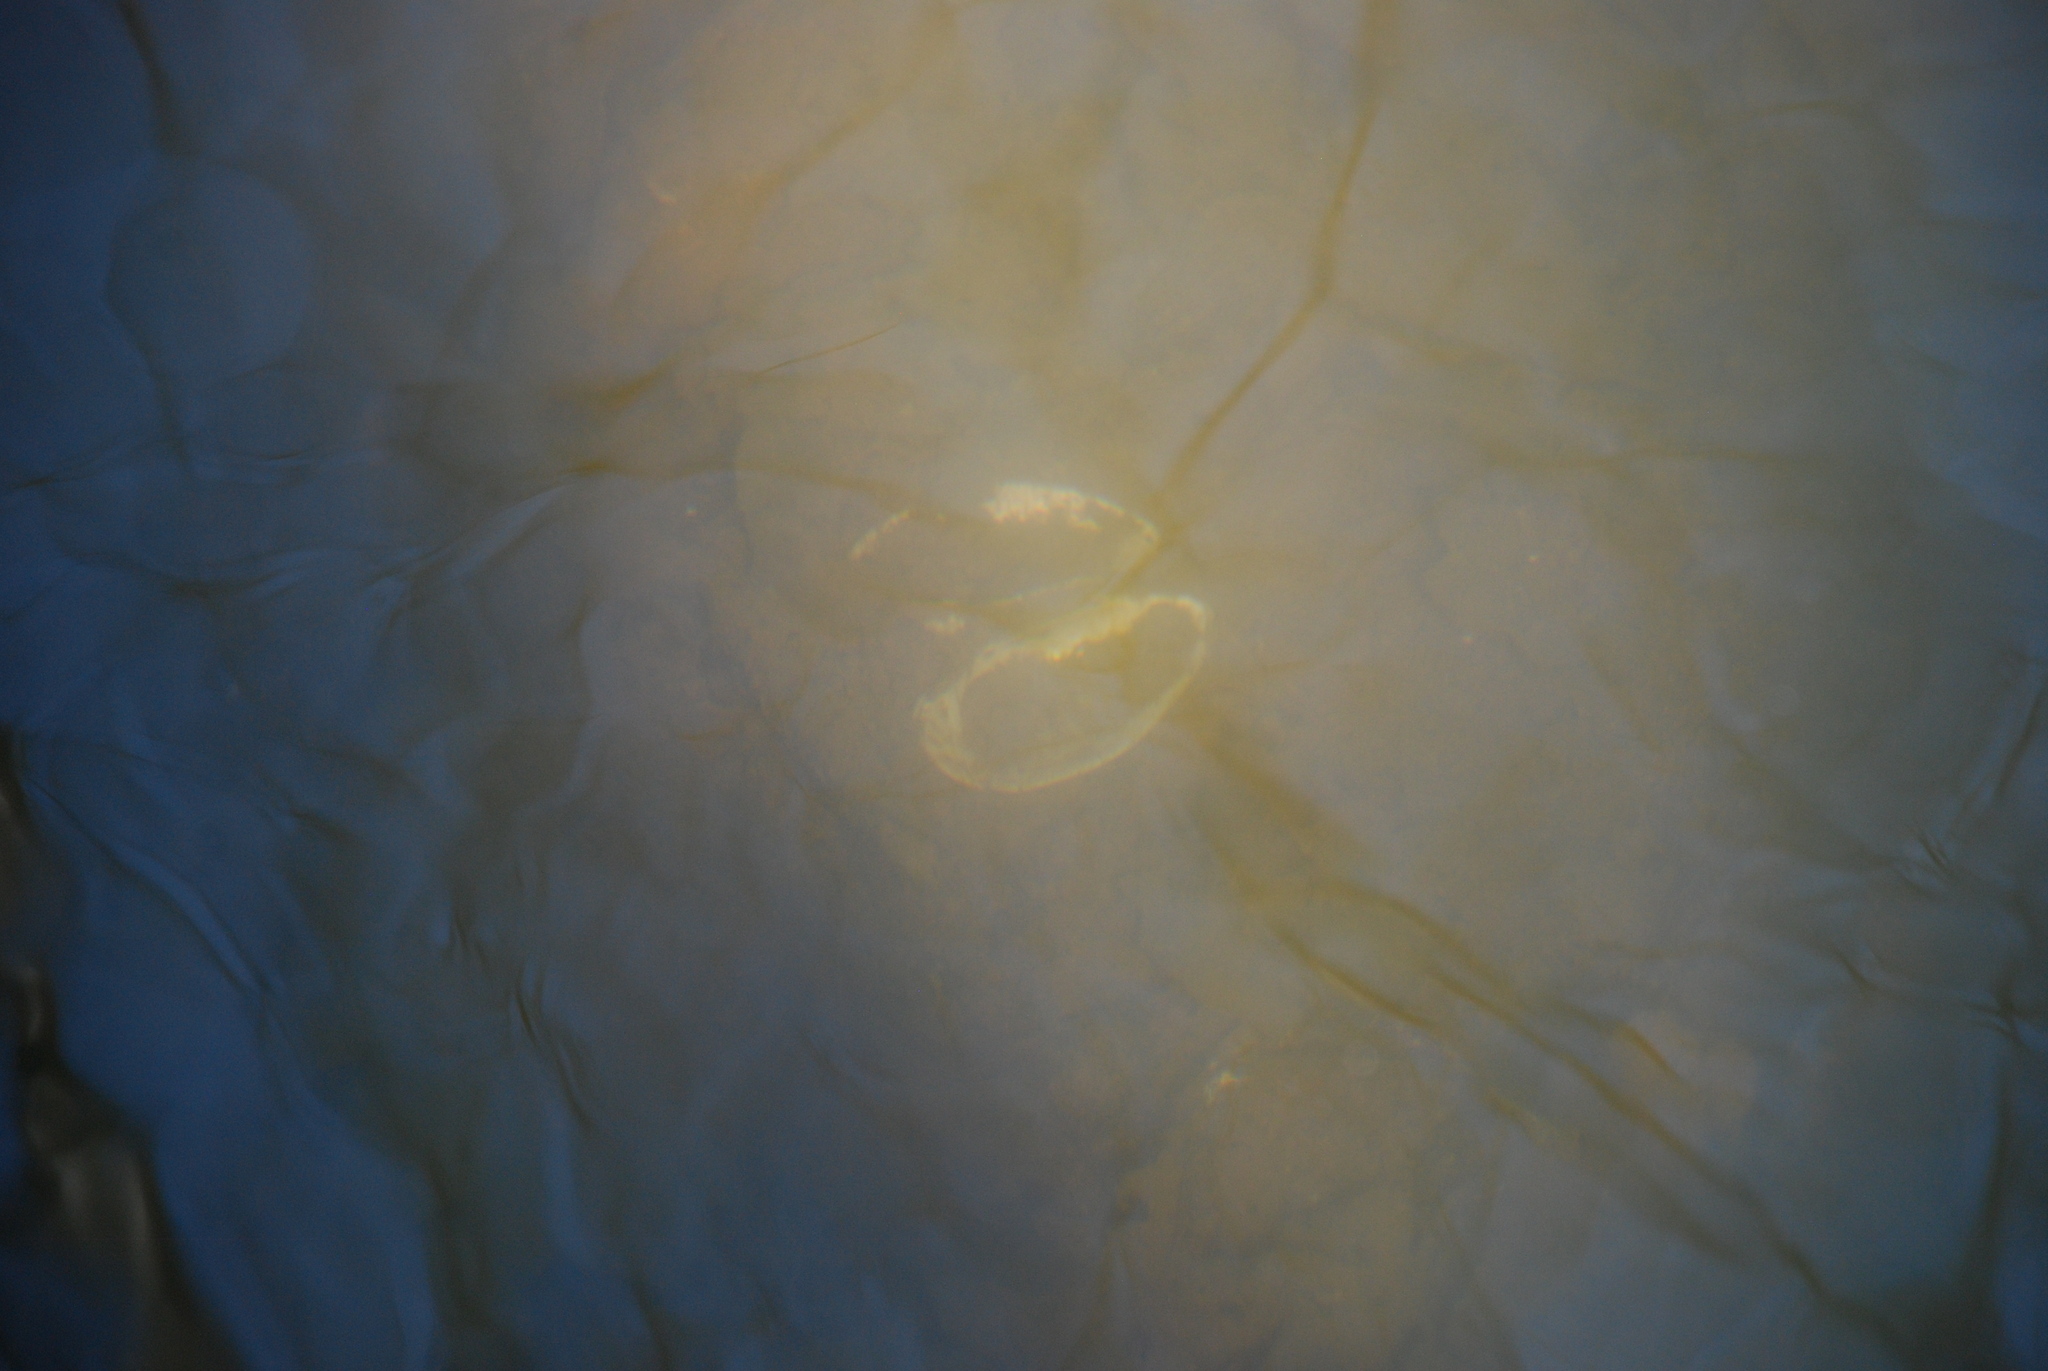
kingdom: Animalia
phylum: Mollusca
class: Bivalvia
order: Unionida
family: Unionidae
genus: Unio
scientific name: Unio tumidus
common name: Swollen river mussel
